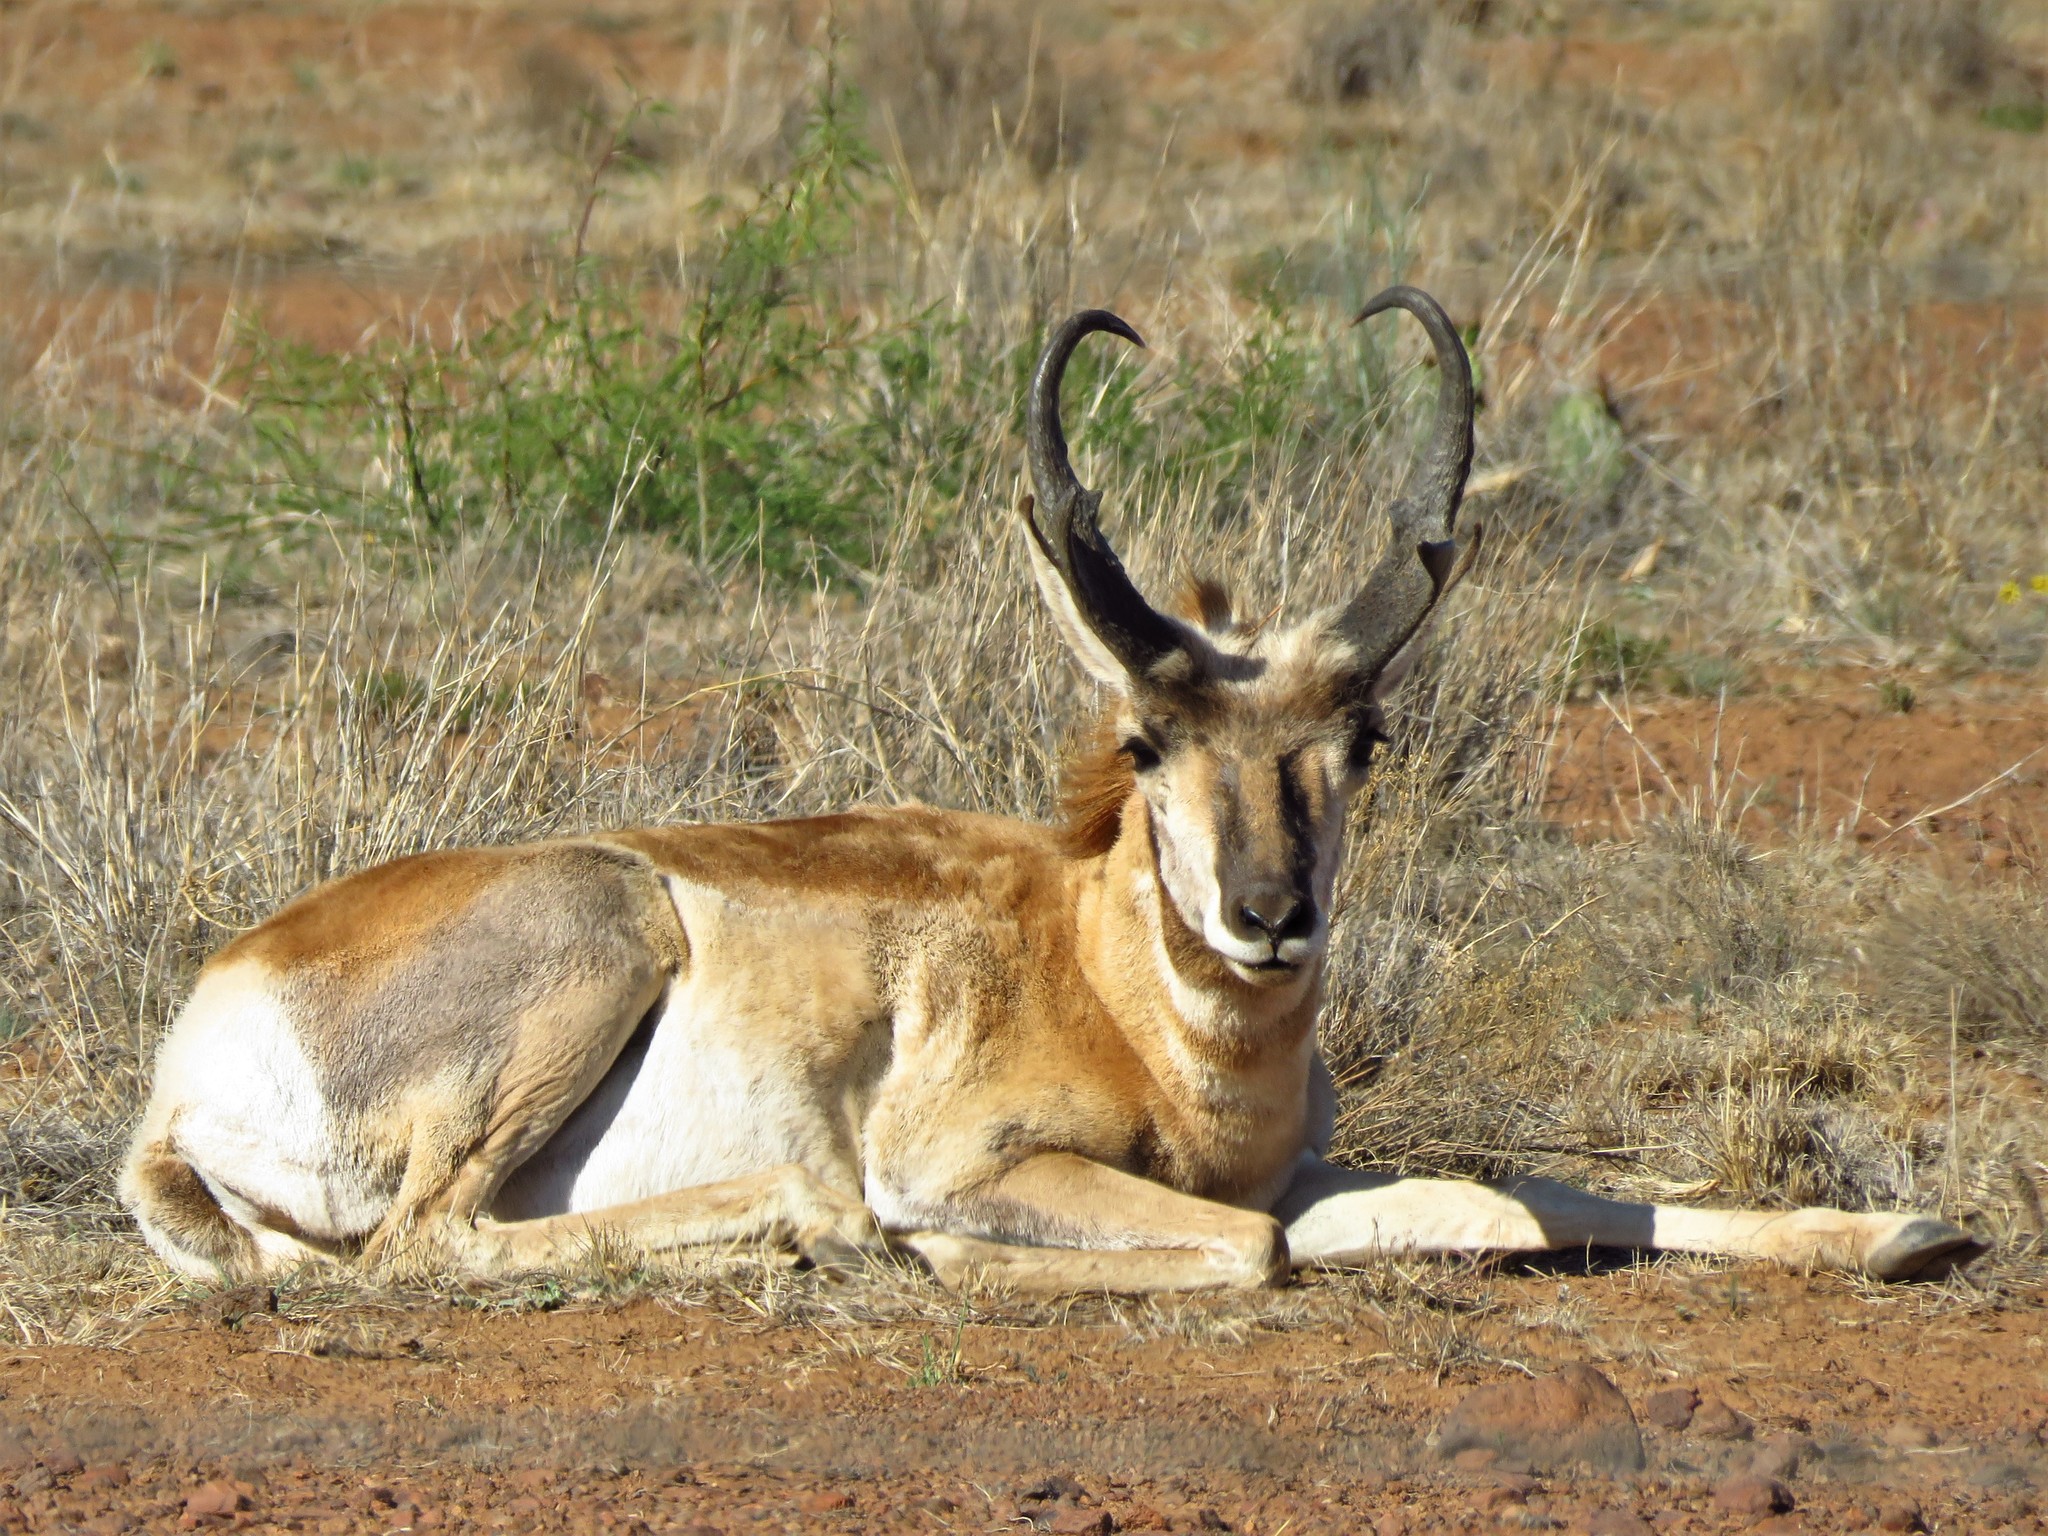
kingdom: Animalia
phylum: Chordata
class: Mammalia
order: Artiodactyla
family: Antilocapridae
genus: Antilocapra
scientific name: Antilocapra americana
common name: Pronghorn
